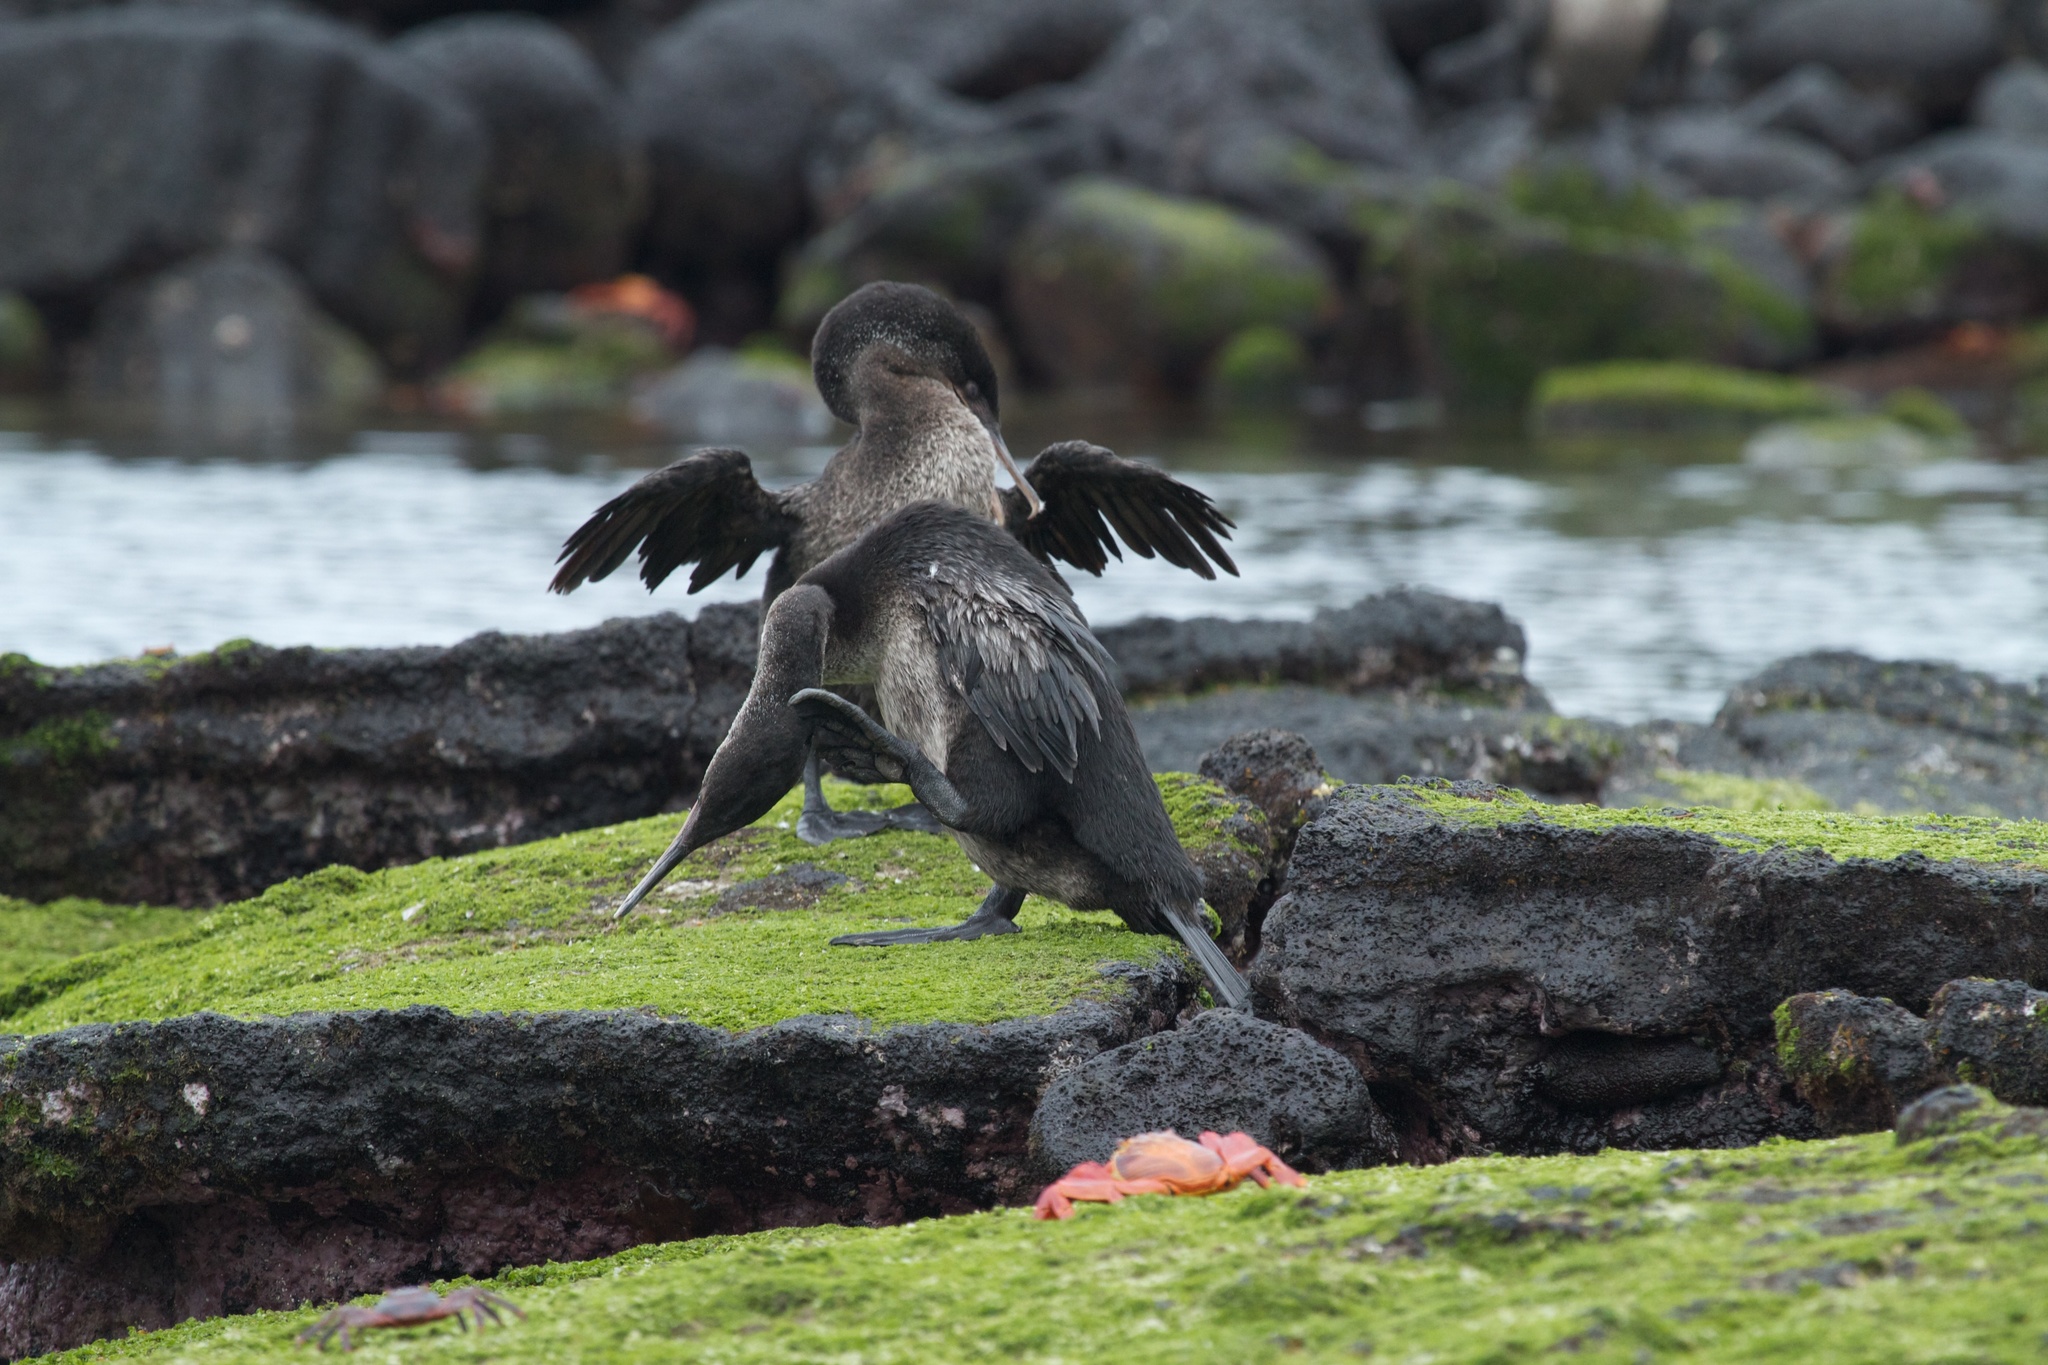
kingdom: Animalia
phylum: Chordata
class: Aves
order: Suliformes
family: Phalacrocoracidae
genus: Phalacrocorax
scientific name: Phalacrocorax harrisi
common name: Flightless cormorant
